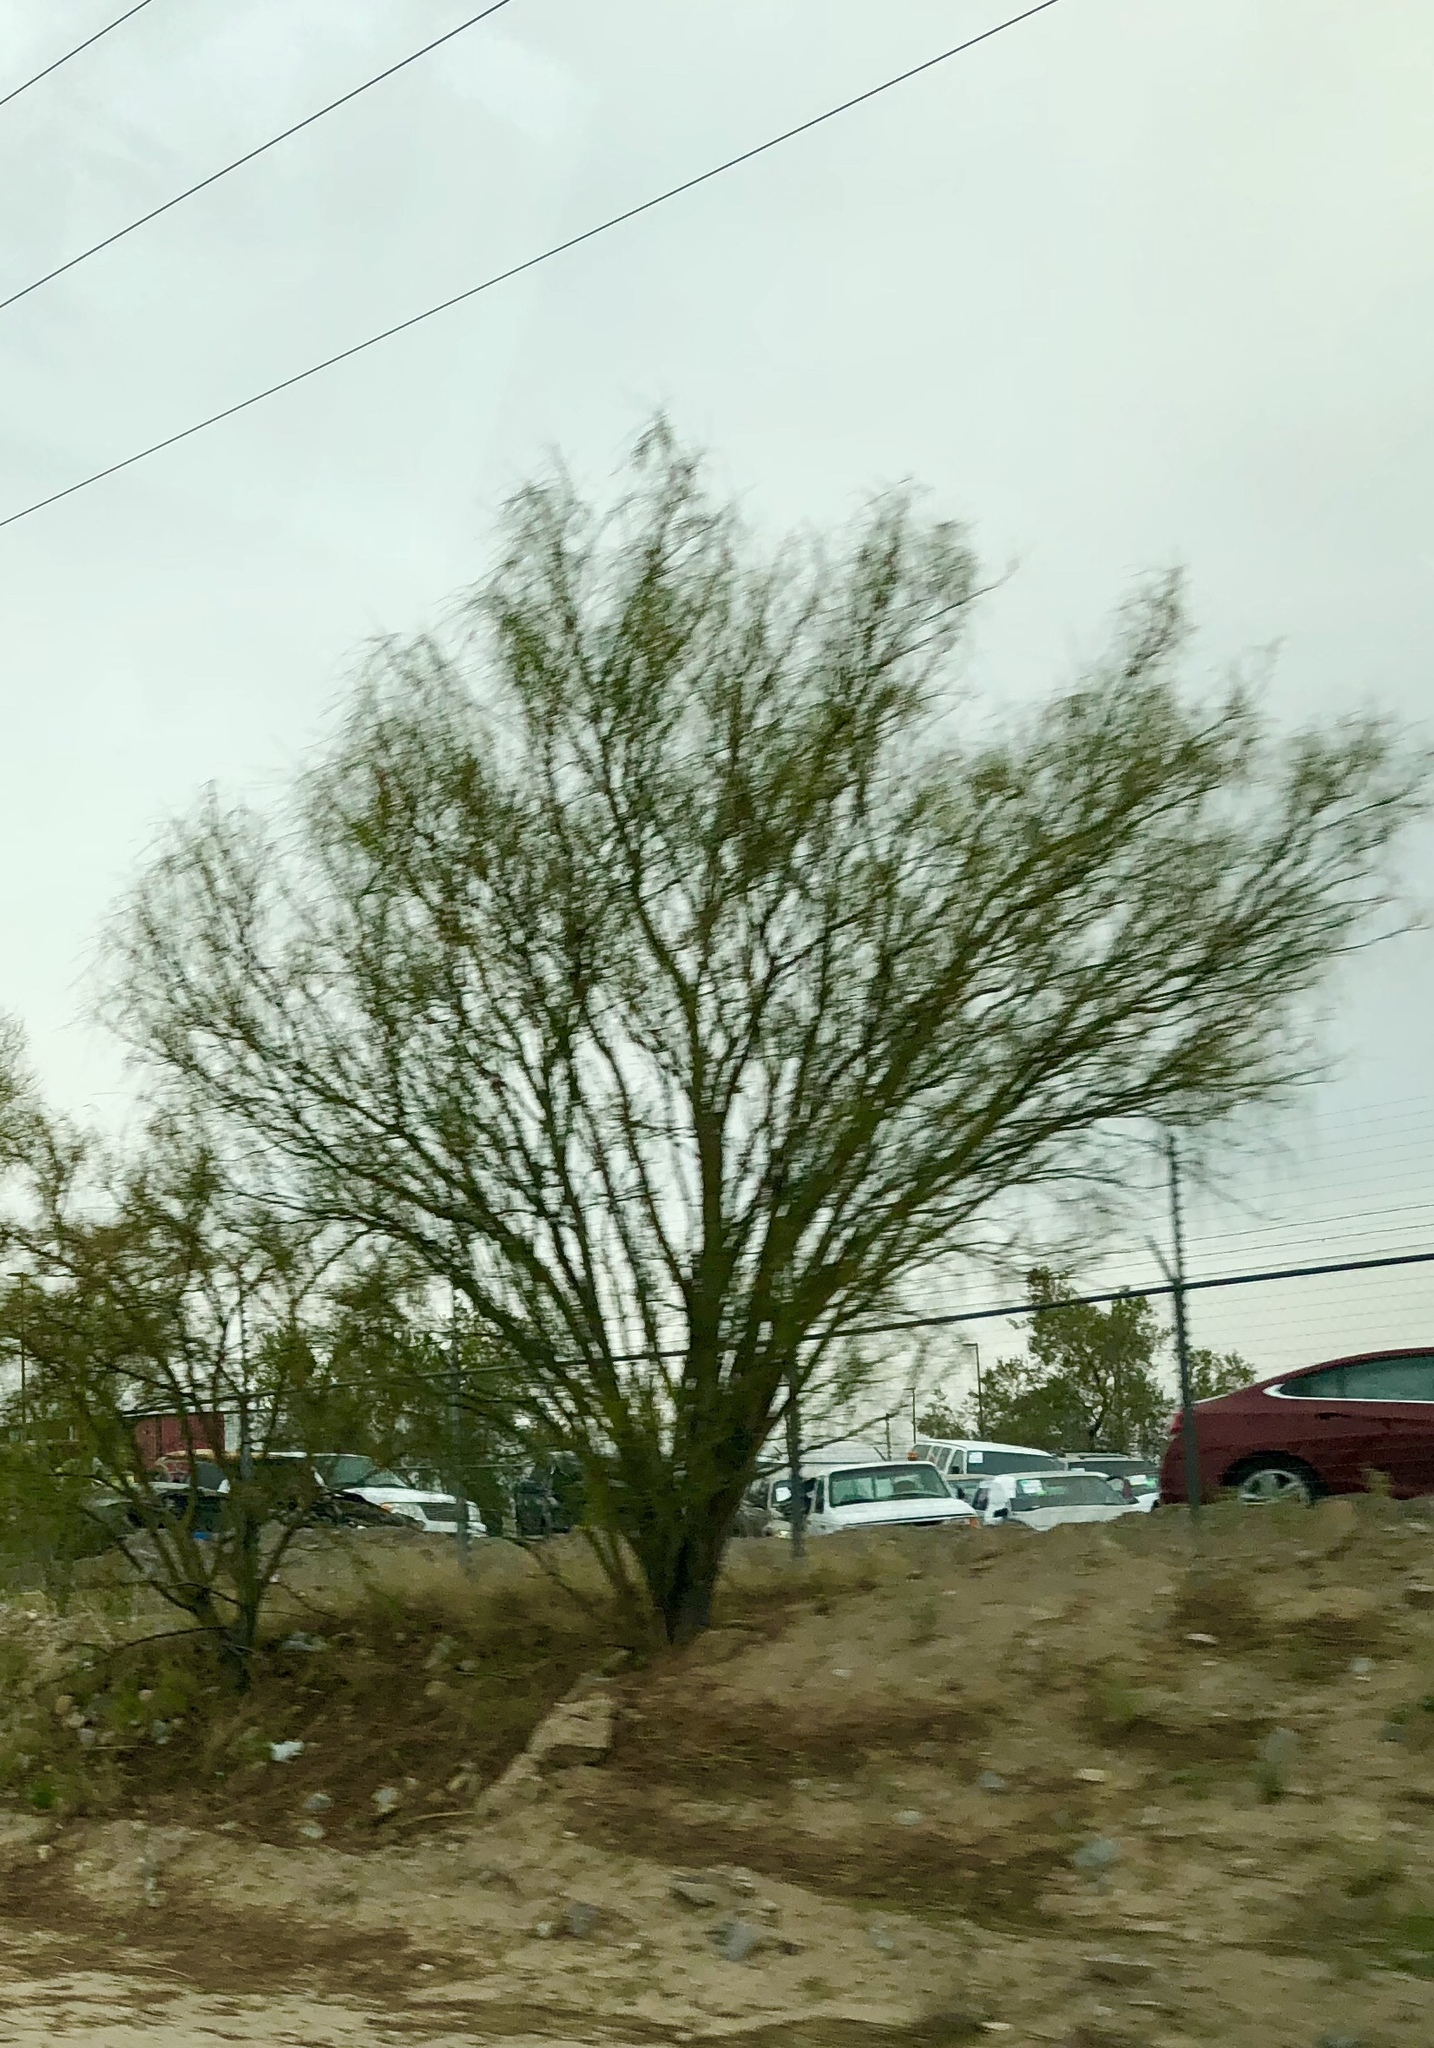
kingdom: Plantae
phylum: Tracheophyta
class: Magnoliopsida
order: Fabales
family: Fabaceae
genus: Parkinsonia
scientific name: Parkinsonia aculeata
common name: Jerusalem thorn
